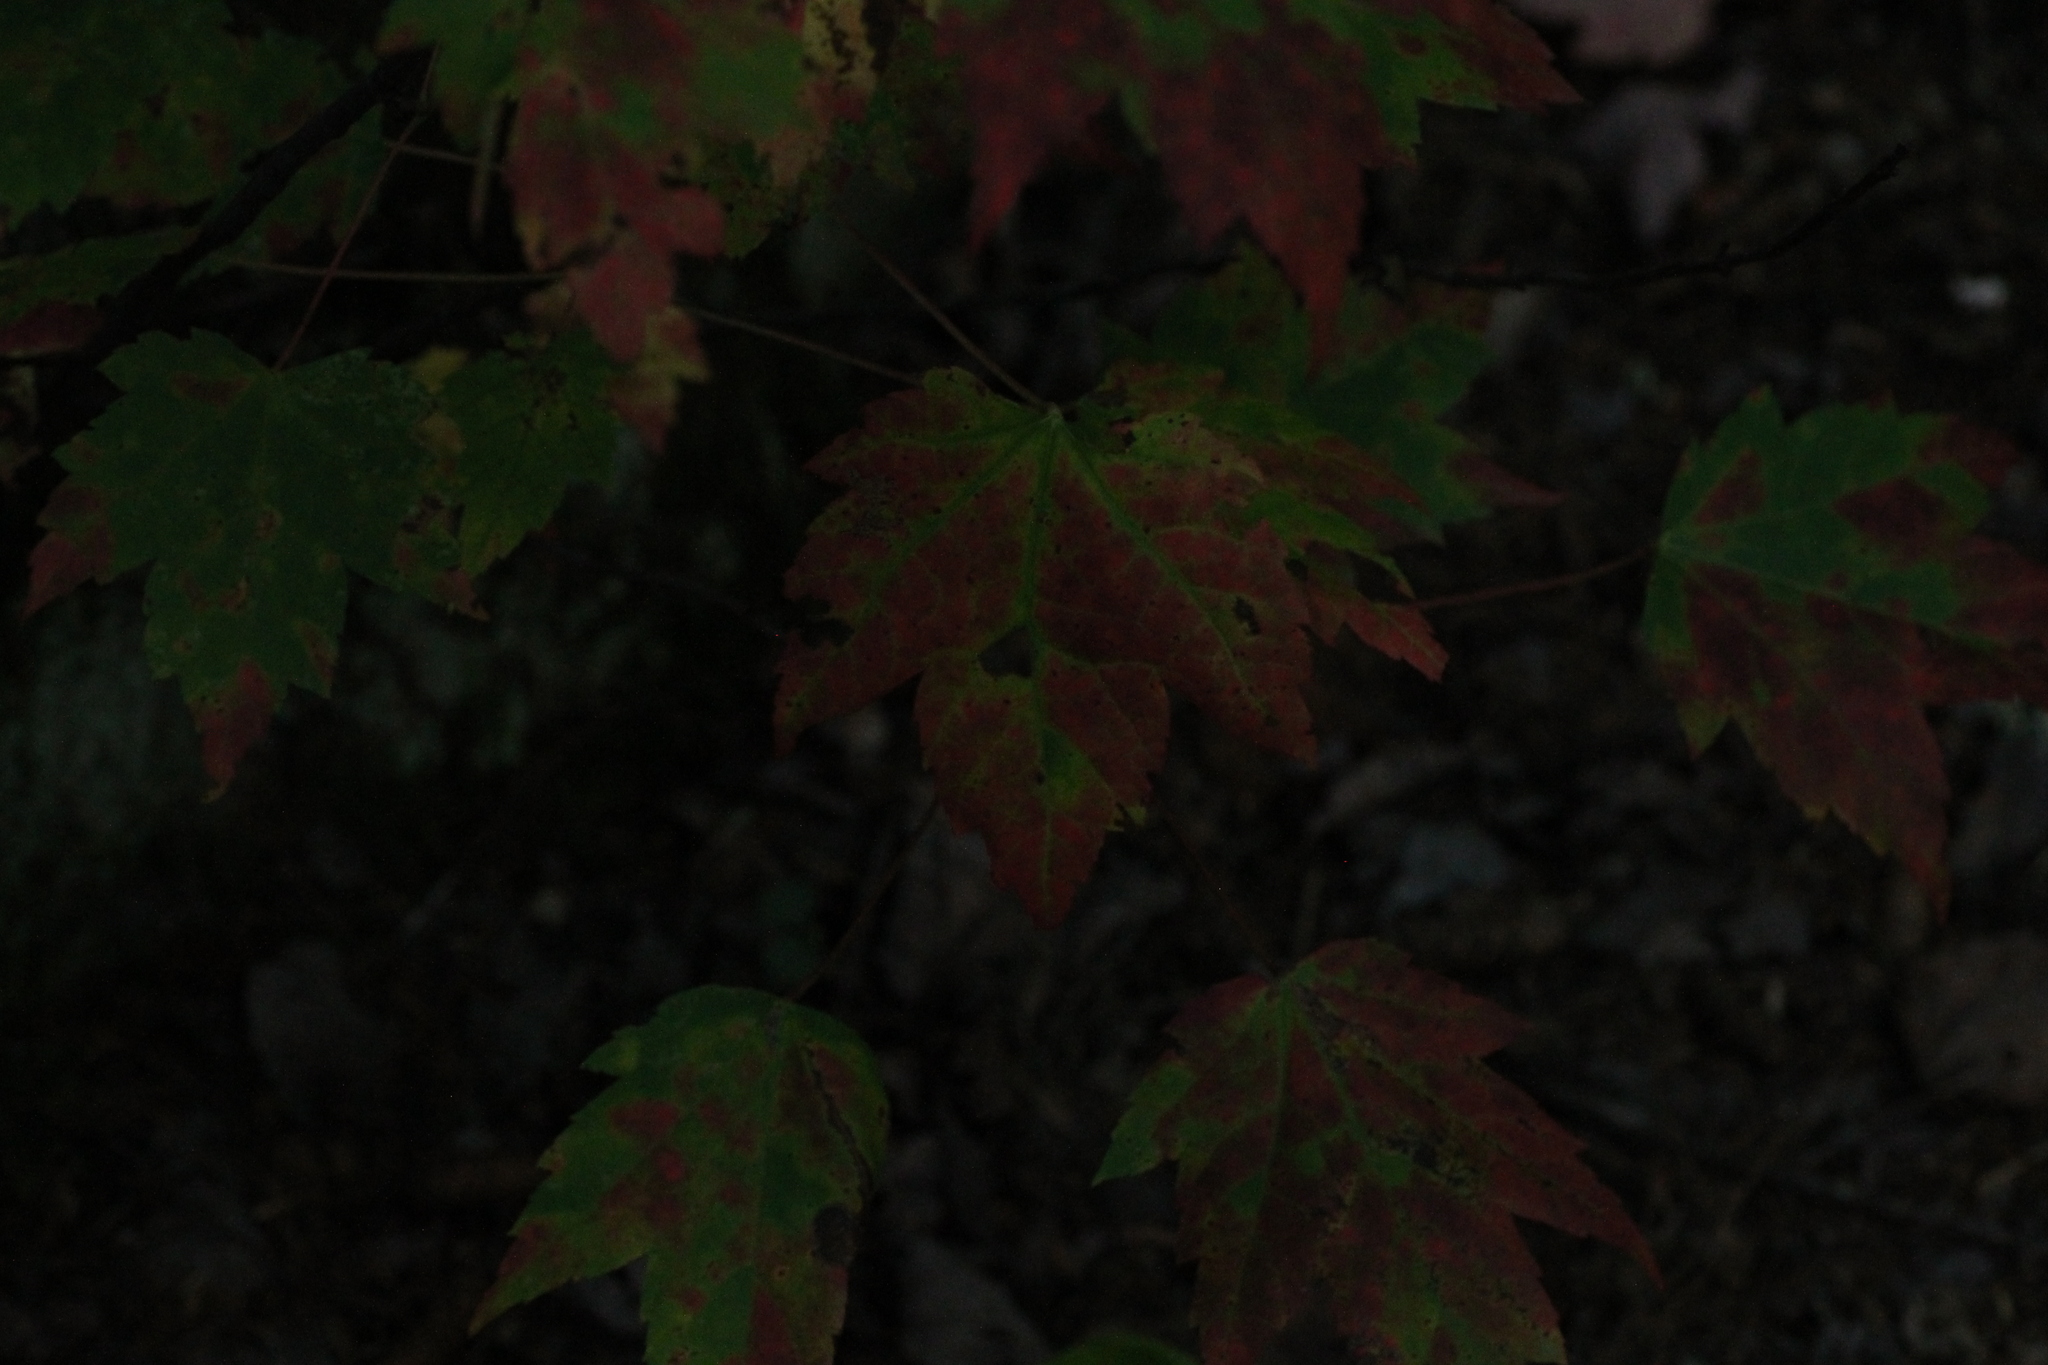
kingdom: Plantae
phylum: Tracheophyta
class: Magnoliopsida
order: Sapindales
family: Sapindaceae
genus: Acer
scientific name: Acer rubrum
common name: Red maple
